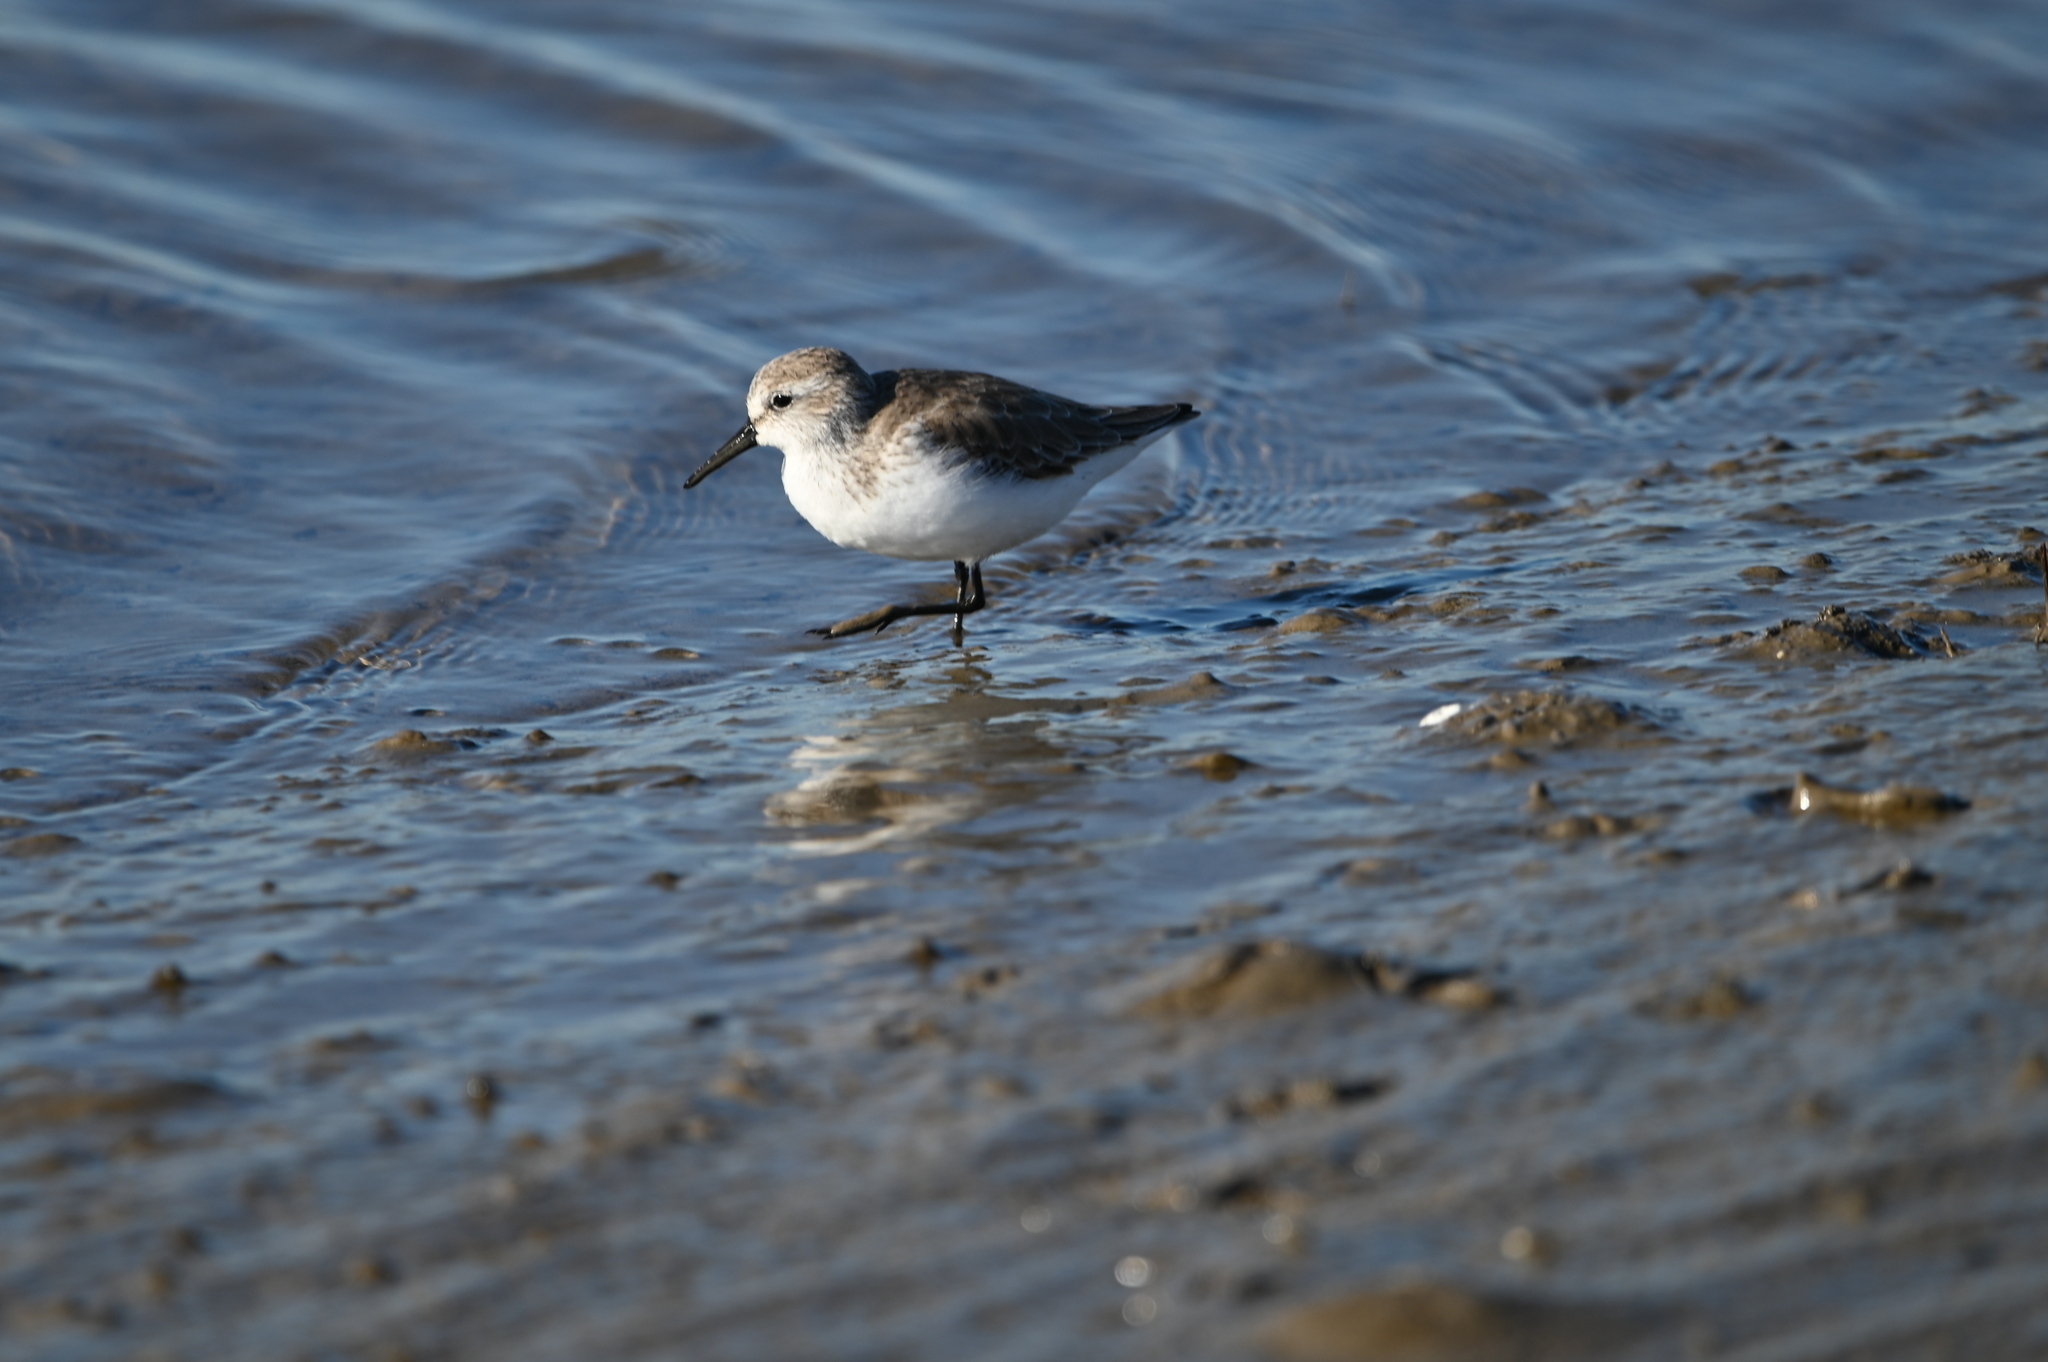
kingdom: Animalia
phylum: Chordata
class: Aves
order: Charadriiformes
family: Scolopacidae
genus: Calidris
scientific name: Calidris mauri
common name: Western sandpiper
